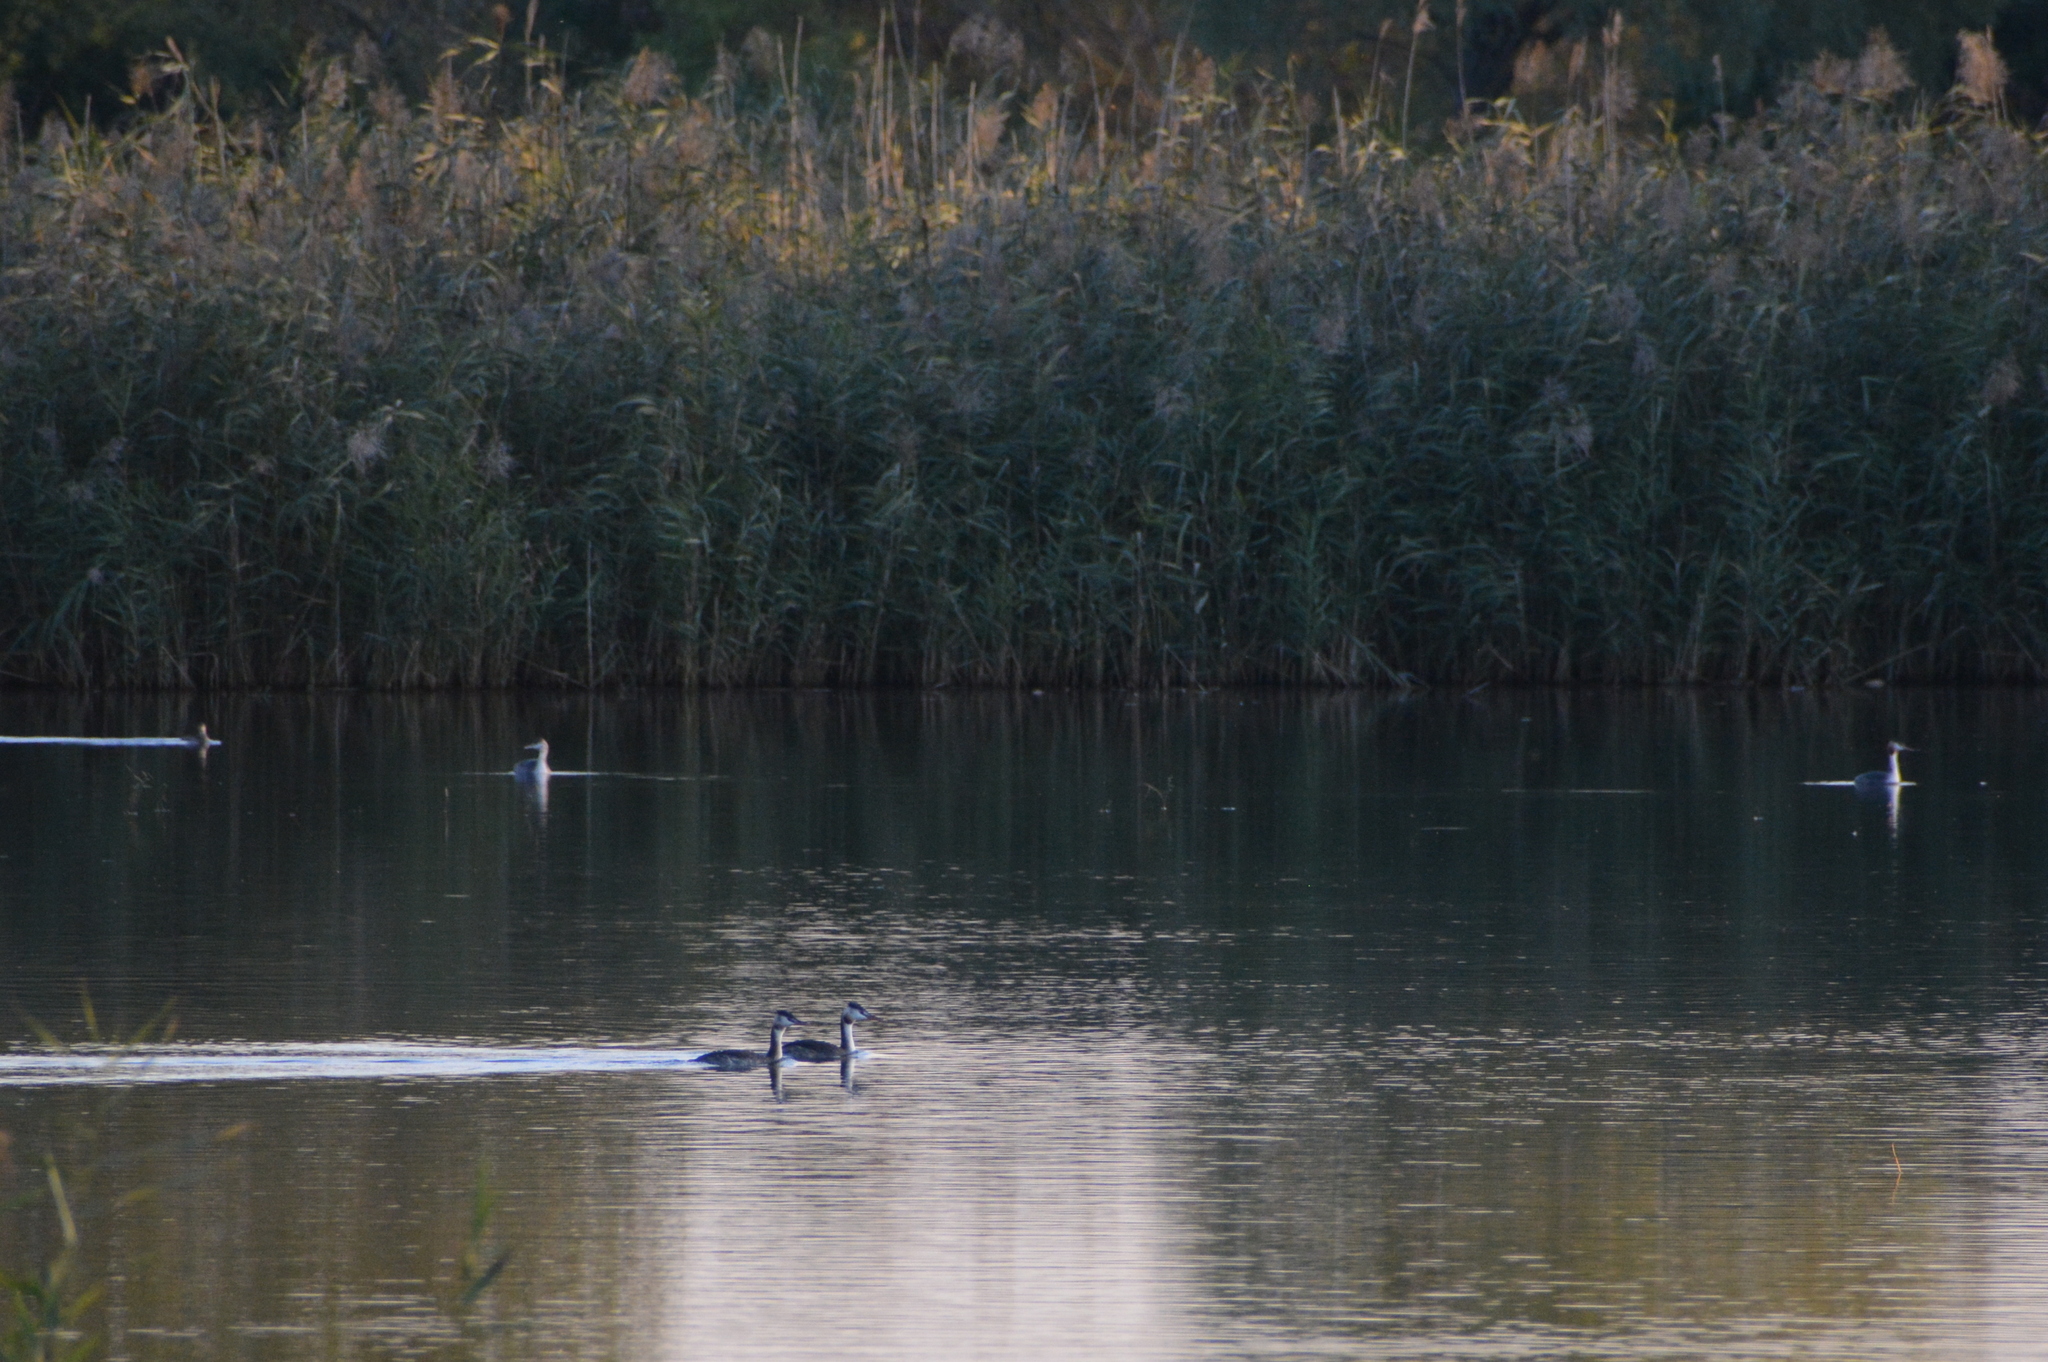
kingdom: Animalia
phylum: Chordata
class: Aves
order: Podicipediformes
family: Podicipedidae
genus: Podiceps
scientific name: Podiceps cristatus
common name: Great crested grebe
